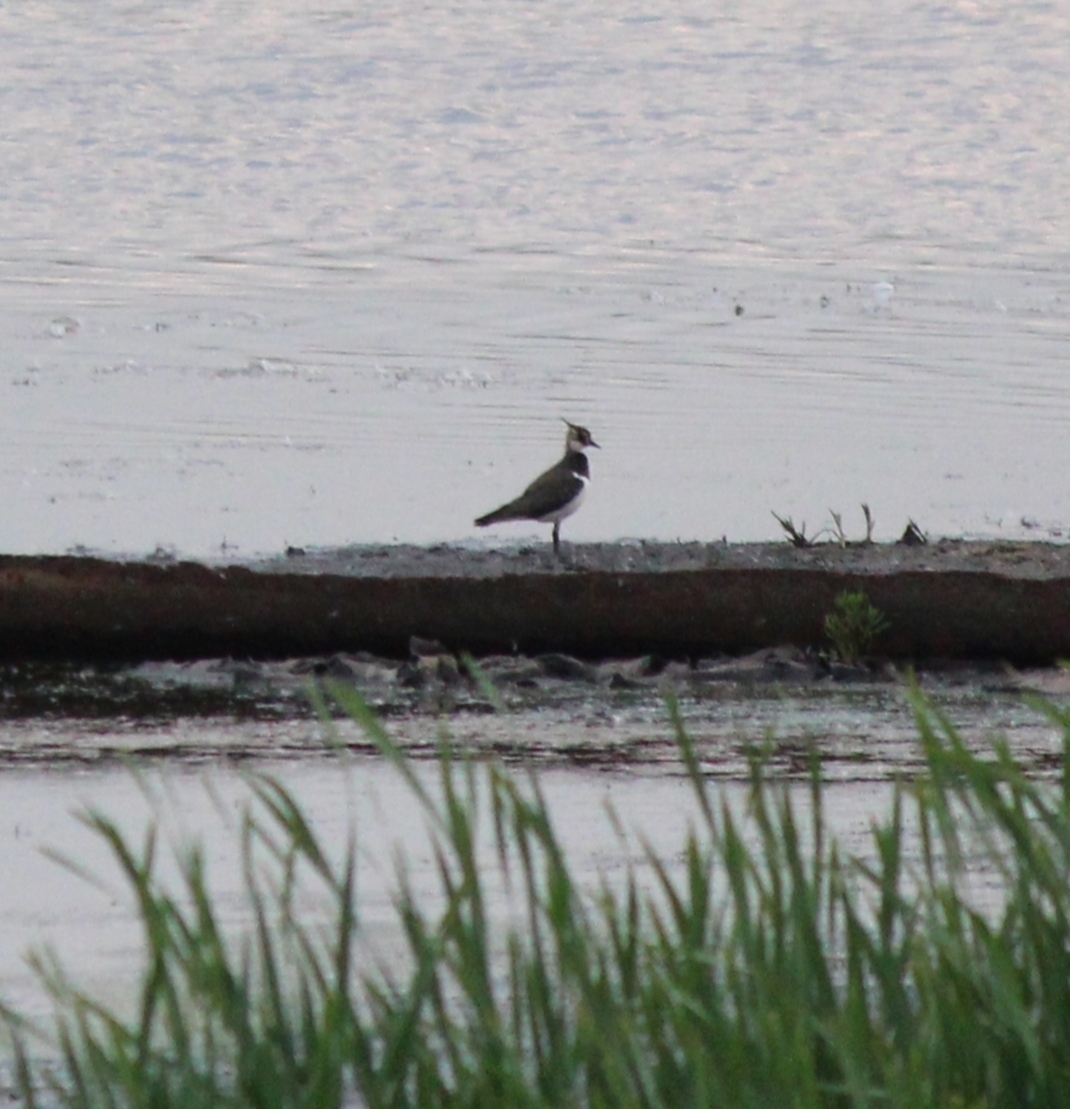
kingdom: Animalia
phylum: Chordata
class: Aves
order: Charadriiformes
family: Charadriidae
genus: Vanellus
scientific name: Vanellus vanellus
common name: Northern lapwing
